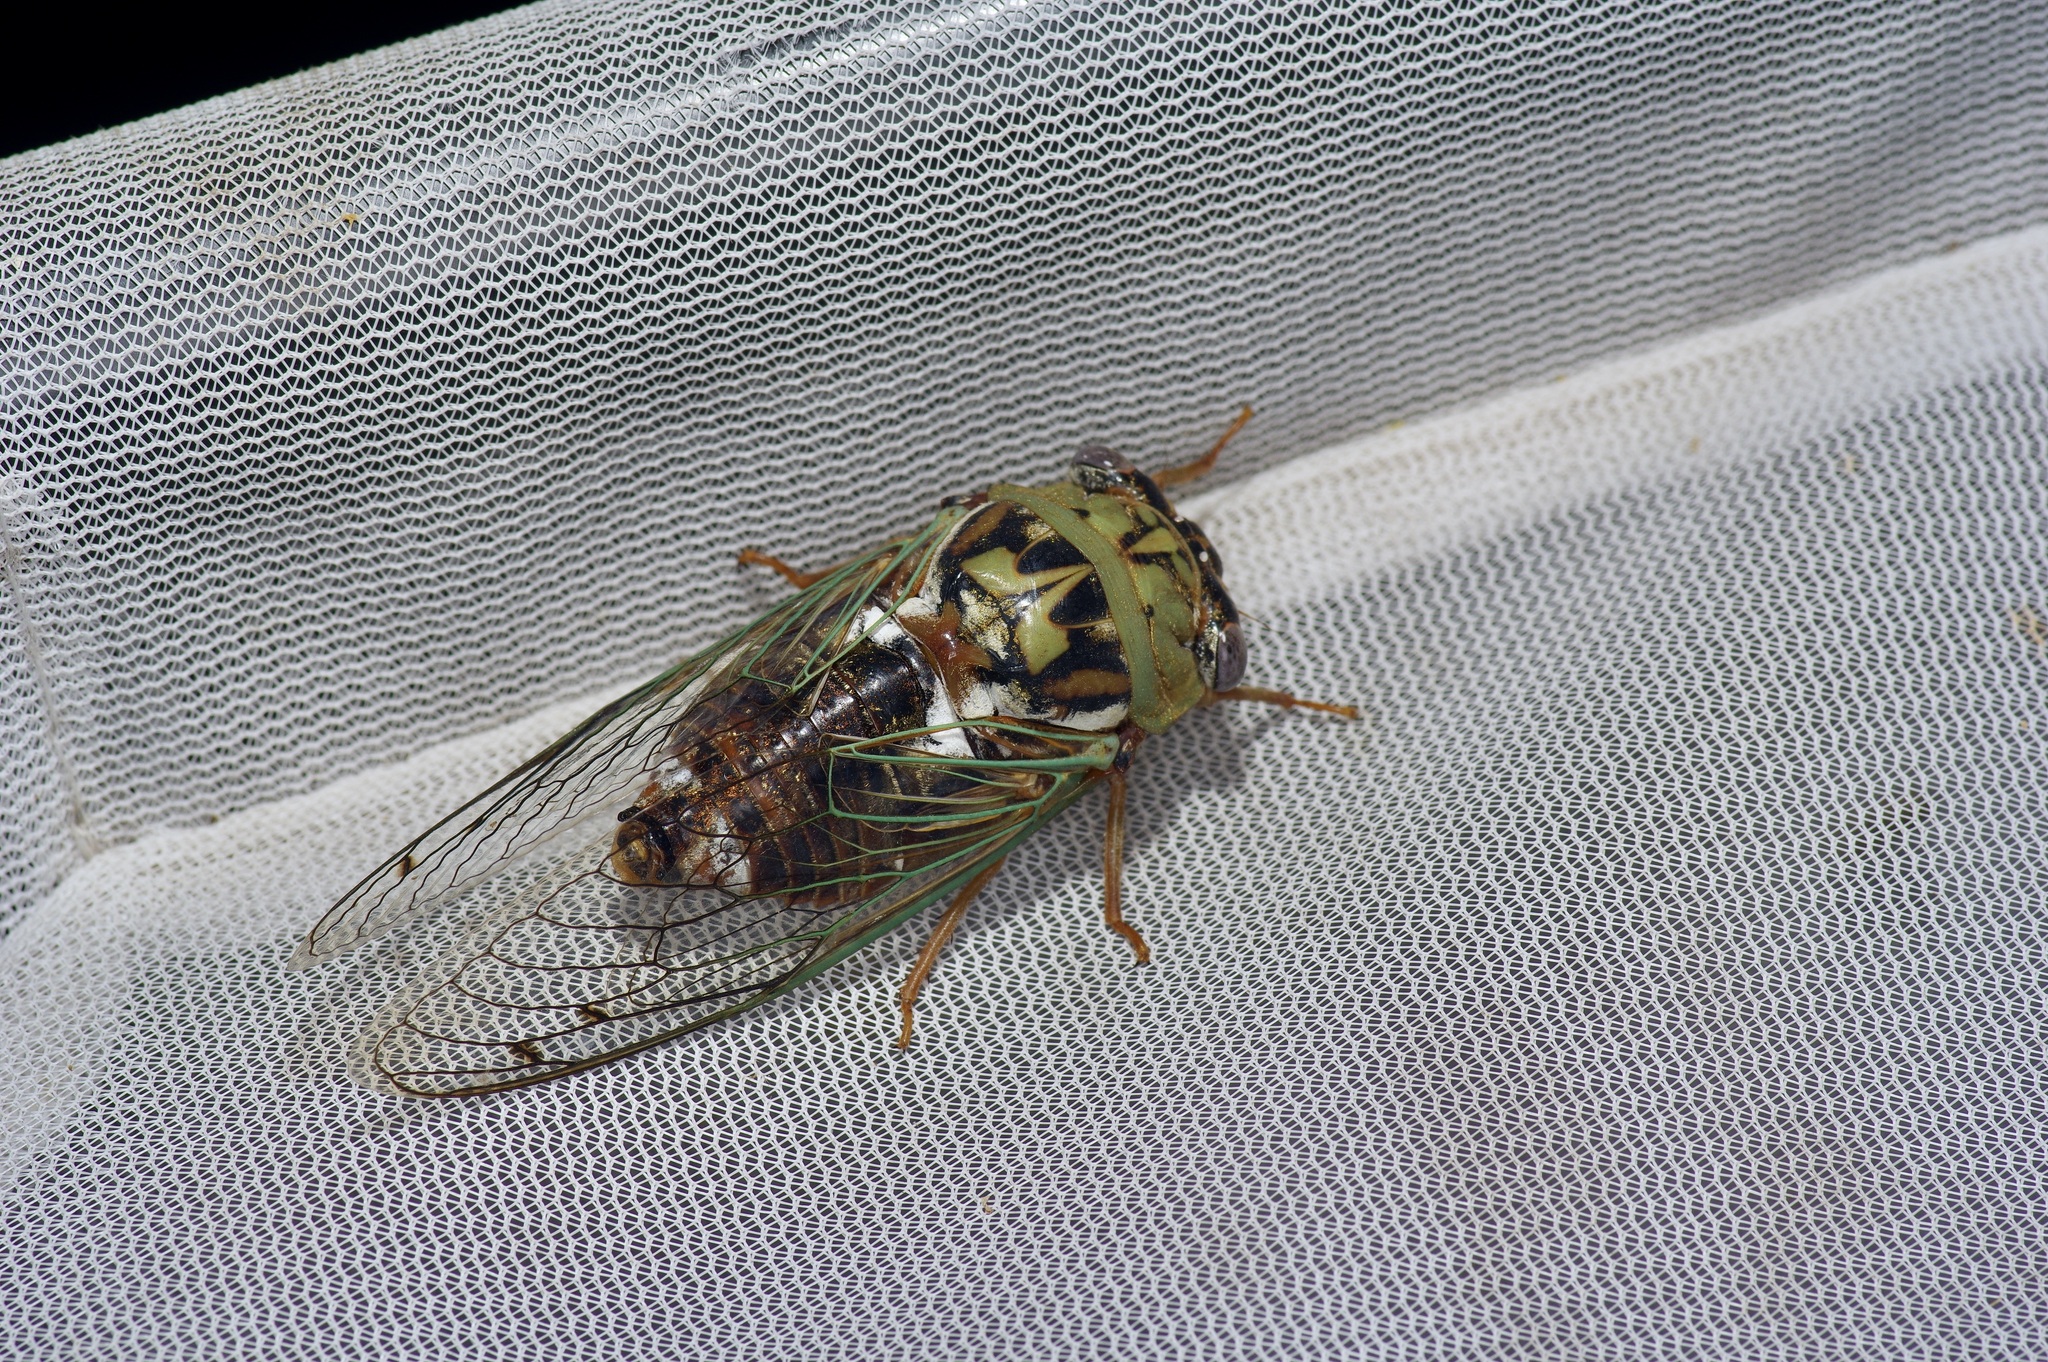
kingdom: Animalia
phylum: Arthropoda
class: Insecta
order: Hemiptera
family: Cicadidae
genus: Megatibicen
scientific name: Megatibicen resh
